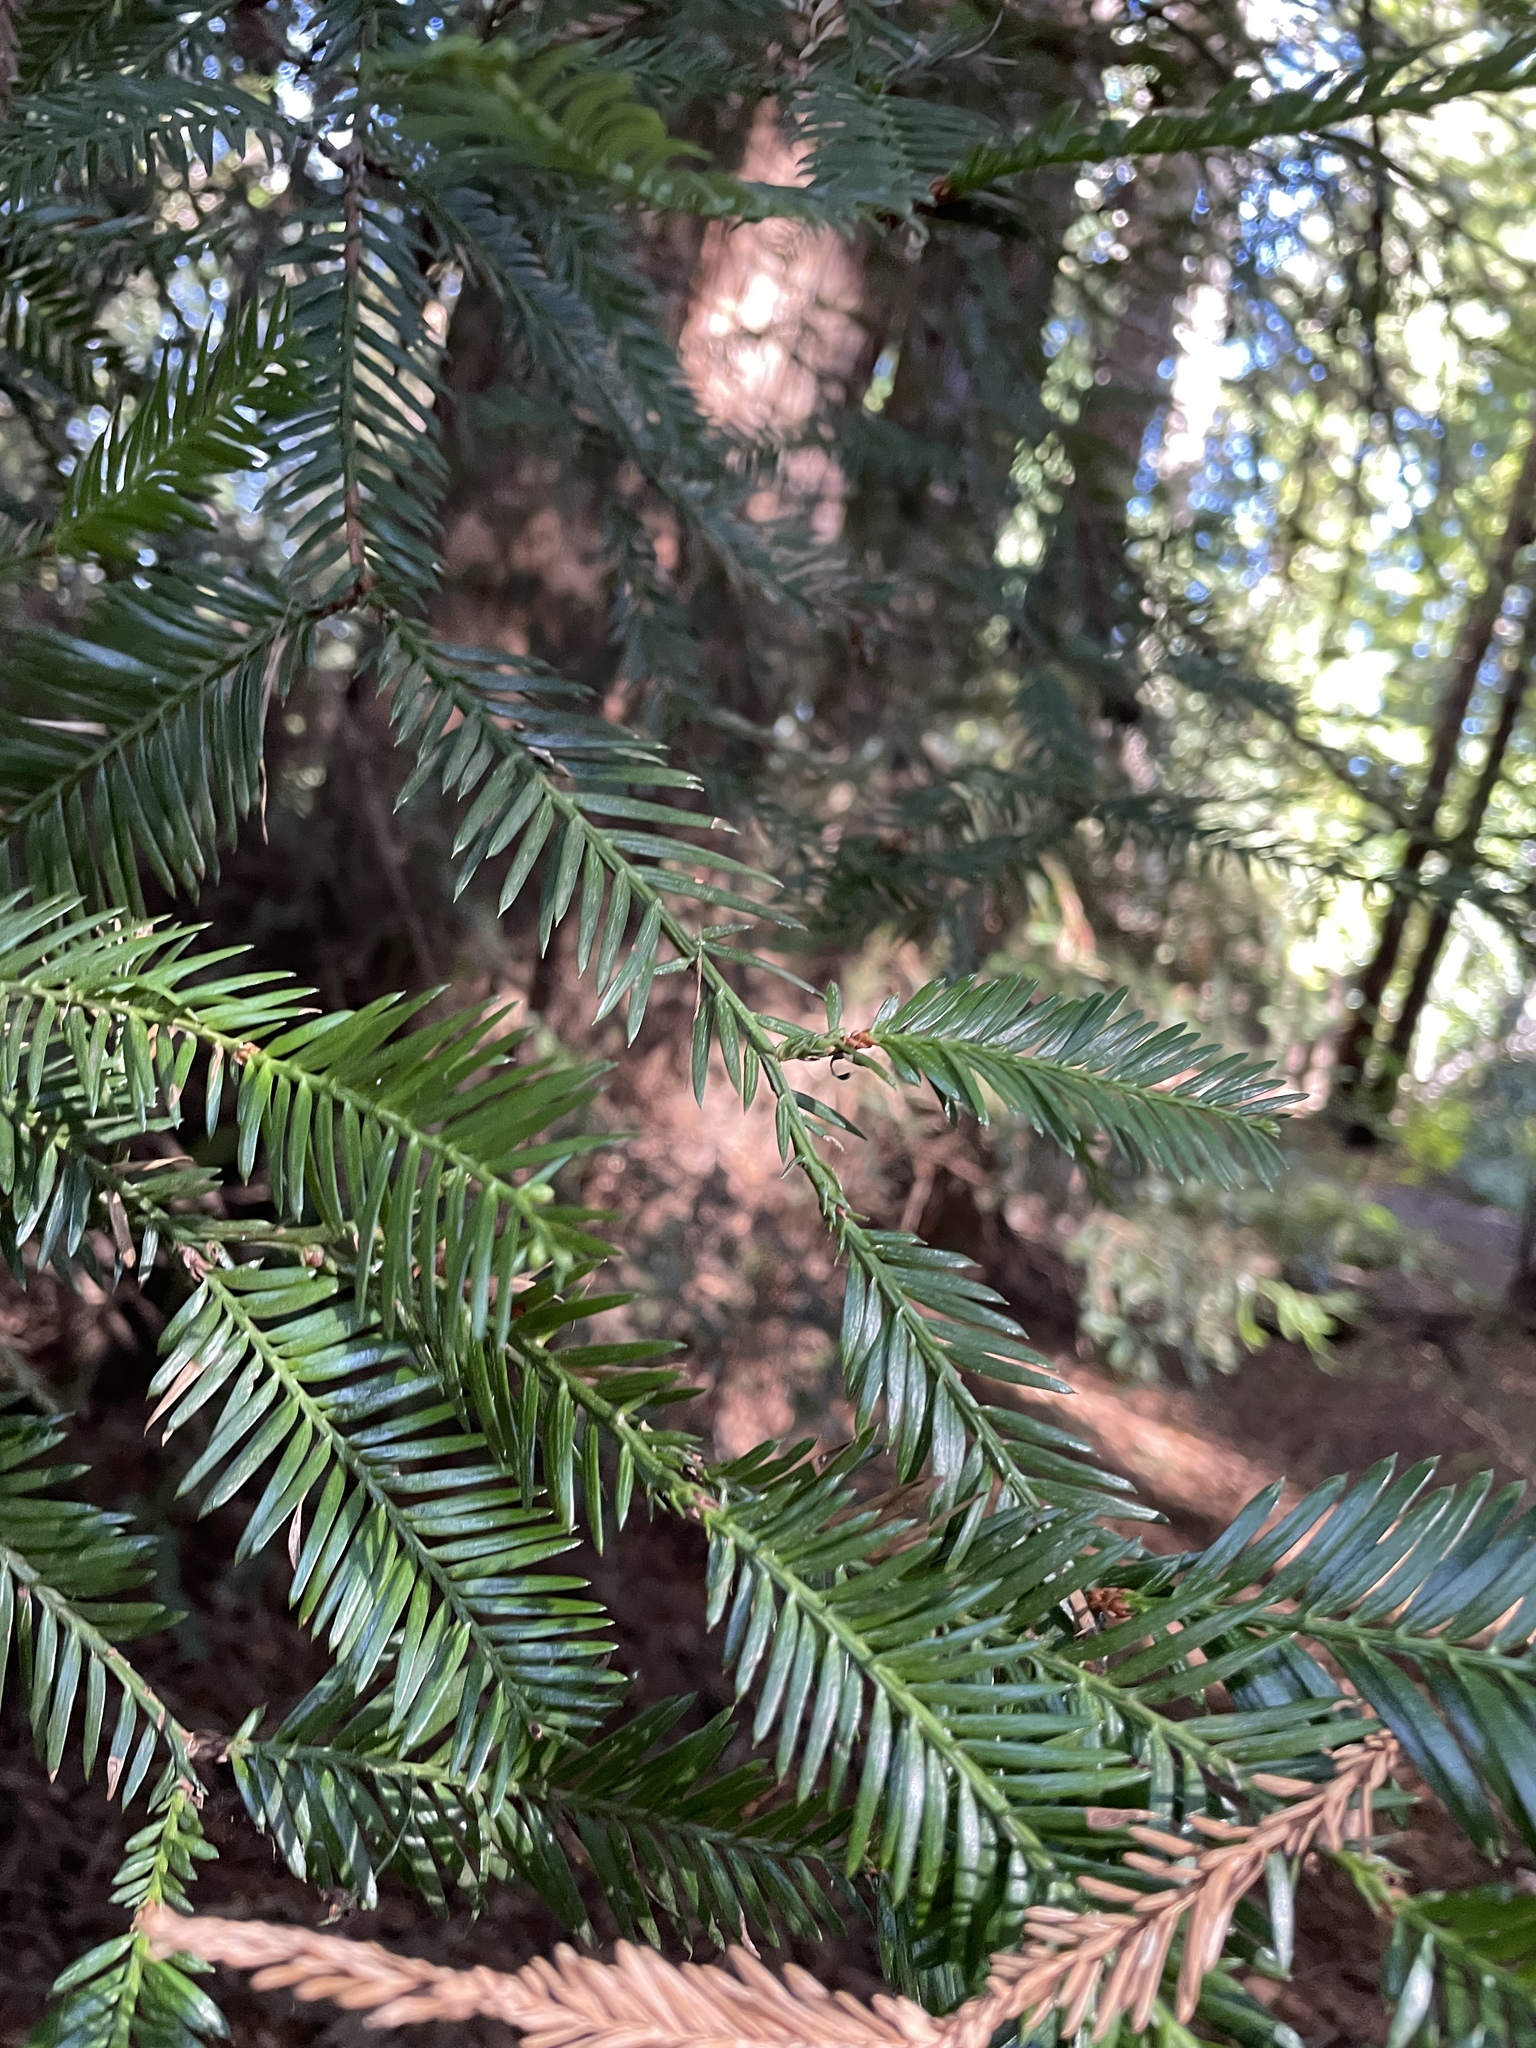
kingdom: Plantae
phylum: Tracheophyta
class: Pinopsida
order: Pinales
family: Cupressaceae
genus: Sequoia
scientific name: Sequoia sempervirens
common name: Coast redwood
